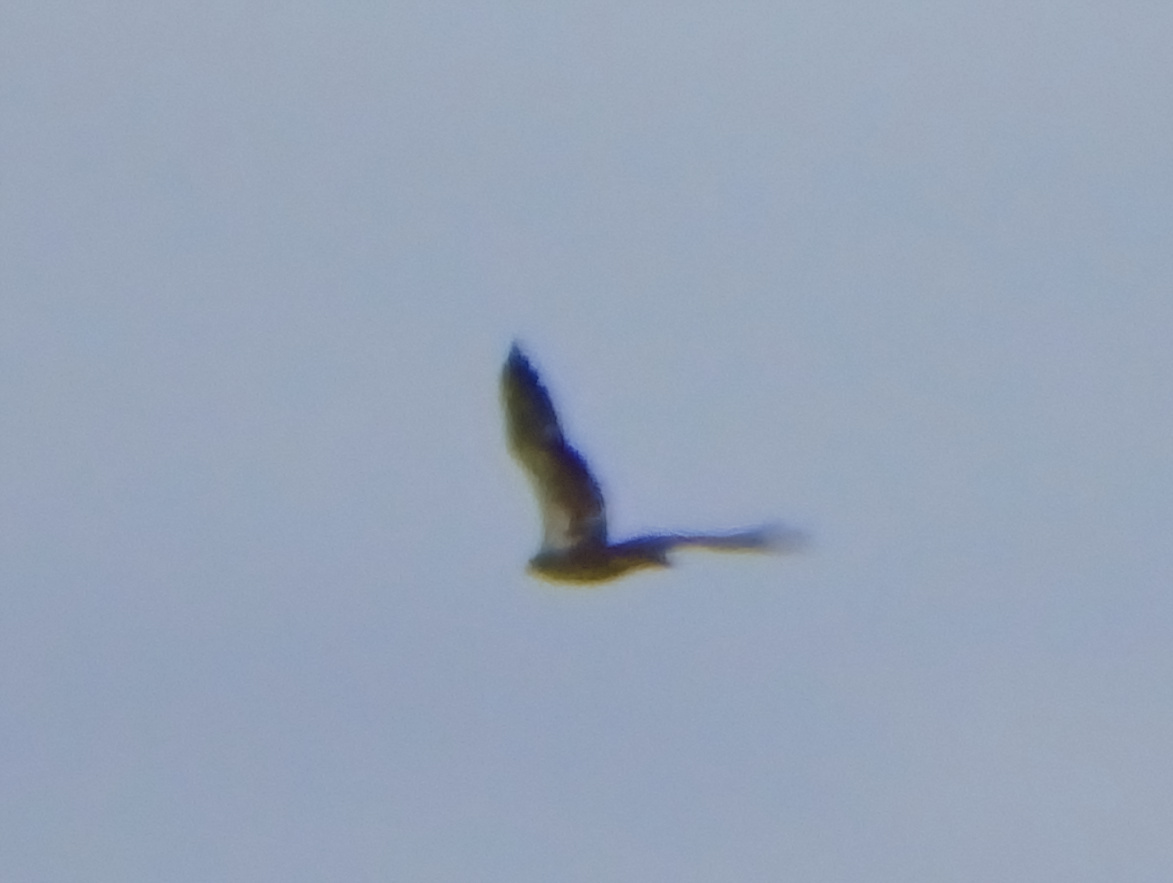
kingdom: Animalia
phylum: Chordata
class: Aves
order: Accipitriformes
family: Accipitridae
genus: Haliaeetus
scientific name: Haliaeetus leucocephalus
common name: Bald eagle
